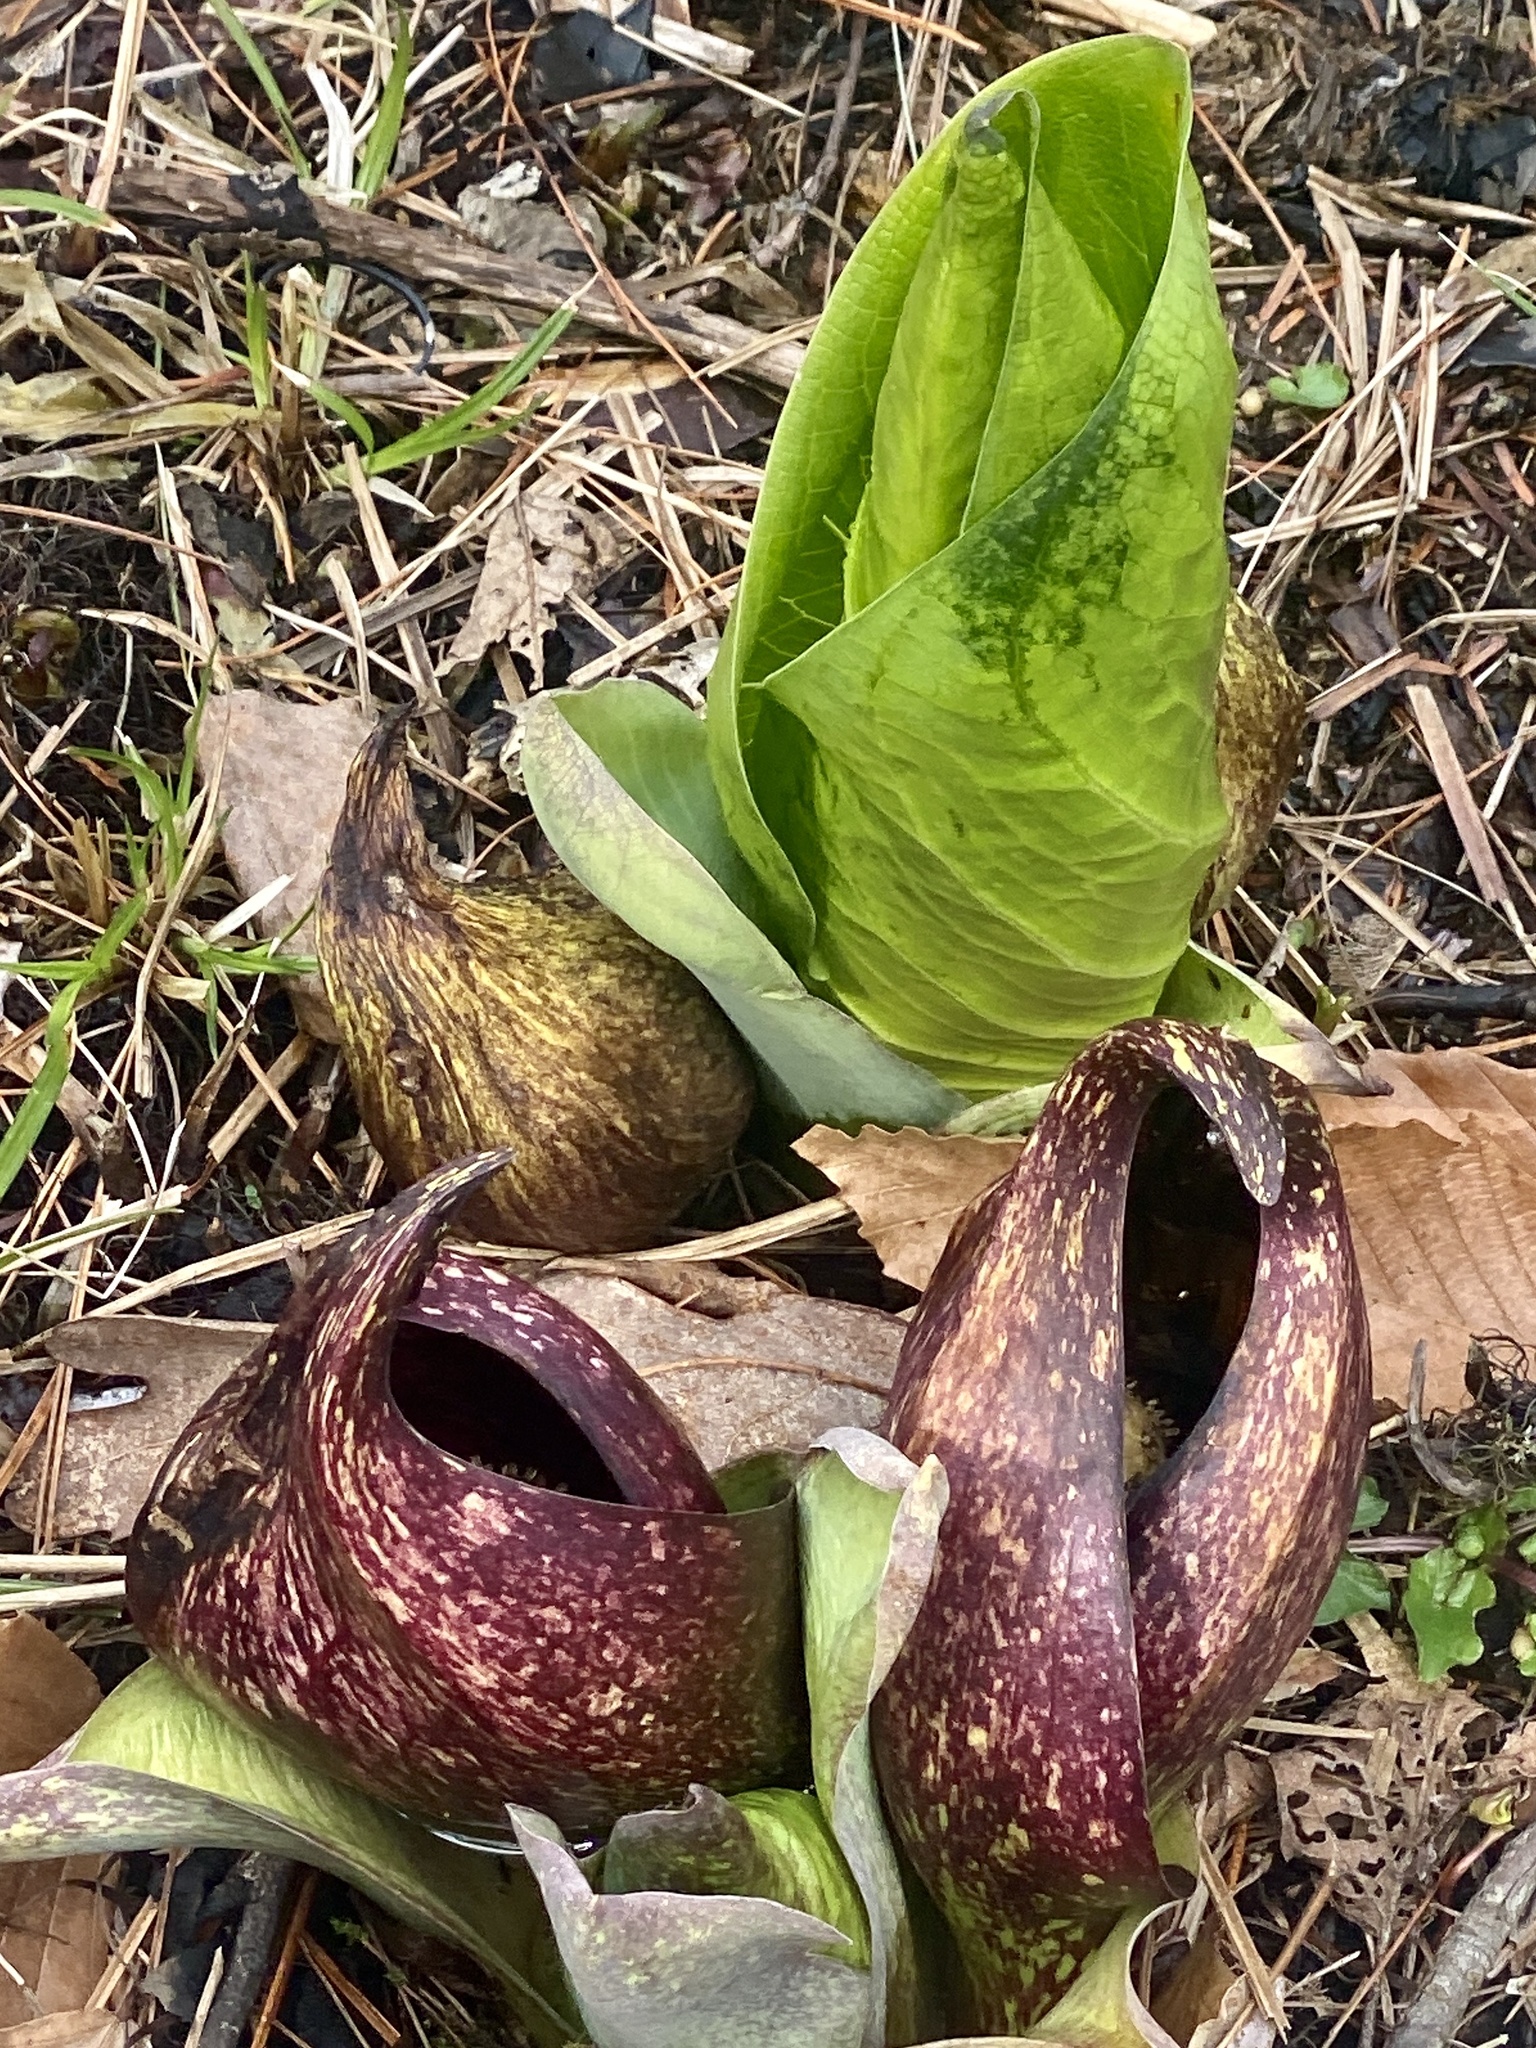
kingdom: Plantae
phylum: Tracheophyta
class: Liliopsida
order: Alismatales
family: Araceae
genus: Symplocarpus
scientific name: Symplocarpus foetidus
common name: Eastern skunk cabbage
